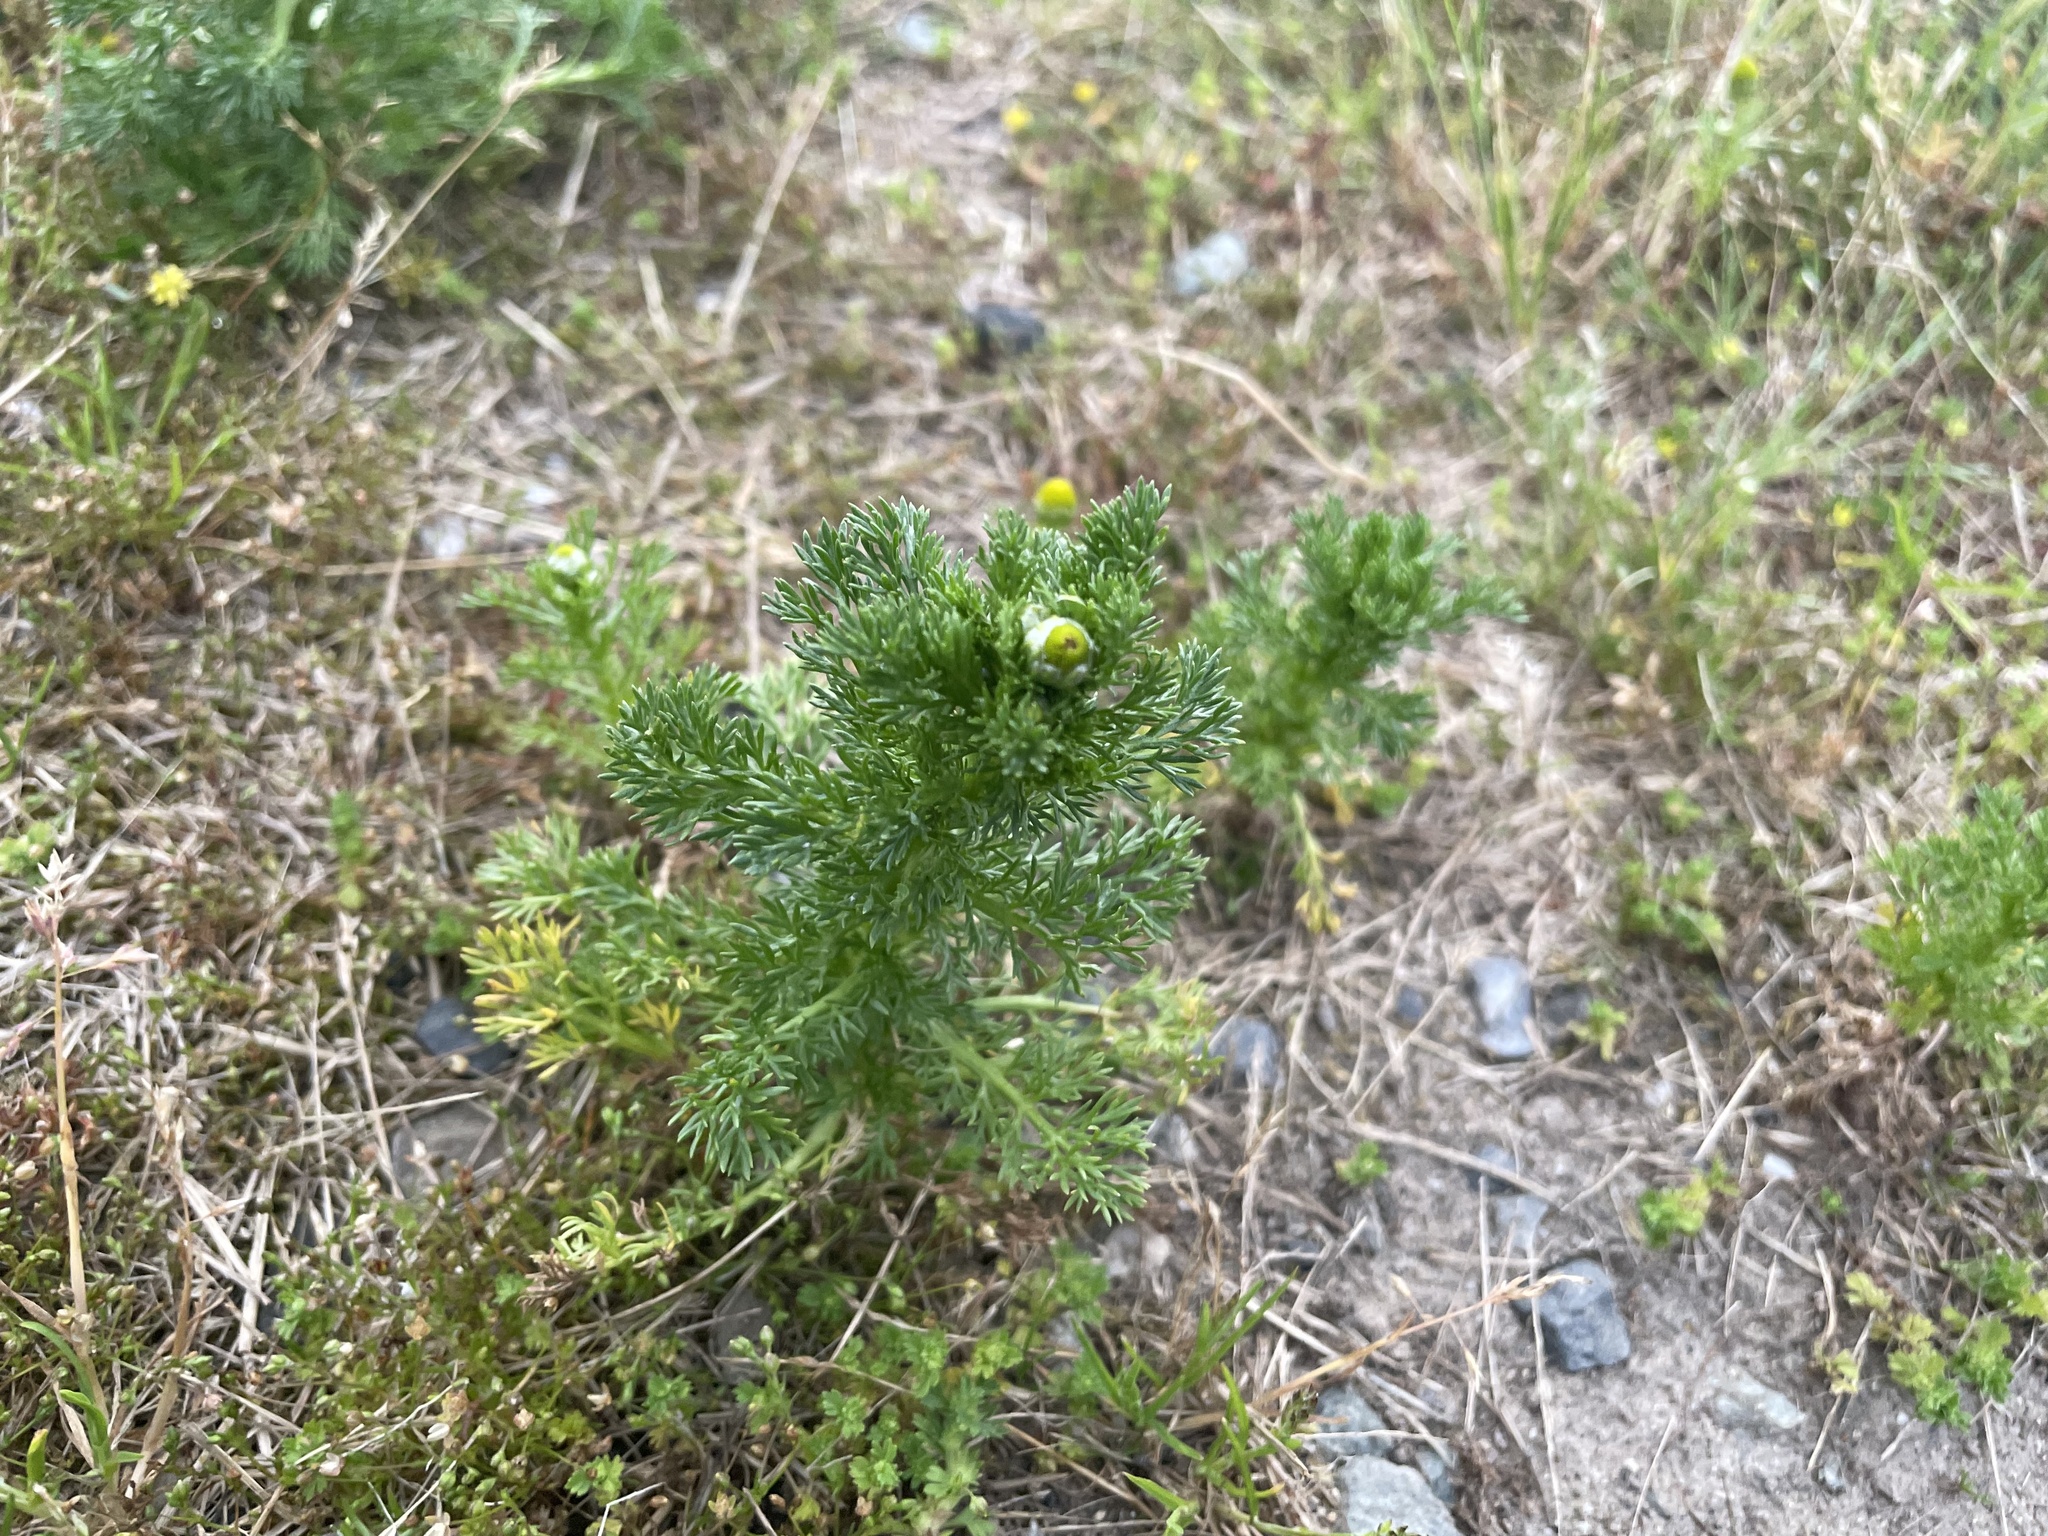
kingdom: Plantae
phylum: Tracheophyta
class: Magnoliopsida
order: Asterales
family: Asteraceae
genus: Matricaria
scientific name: Matricaria discoidea
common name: Disc mayweed
